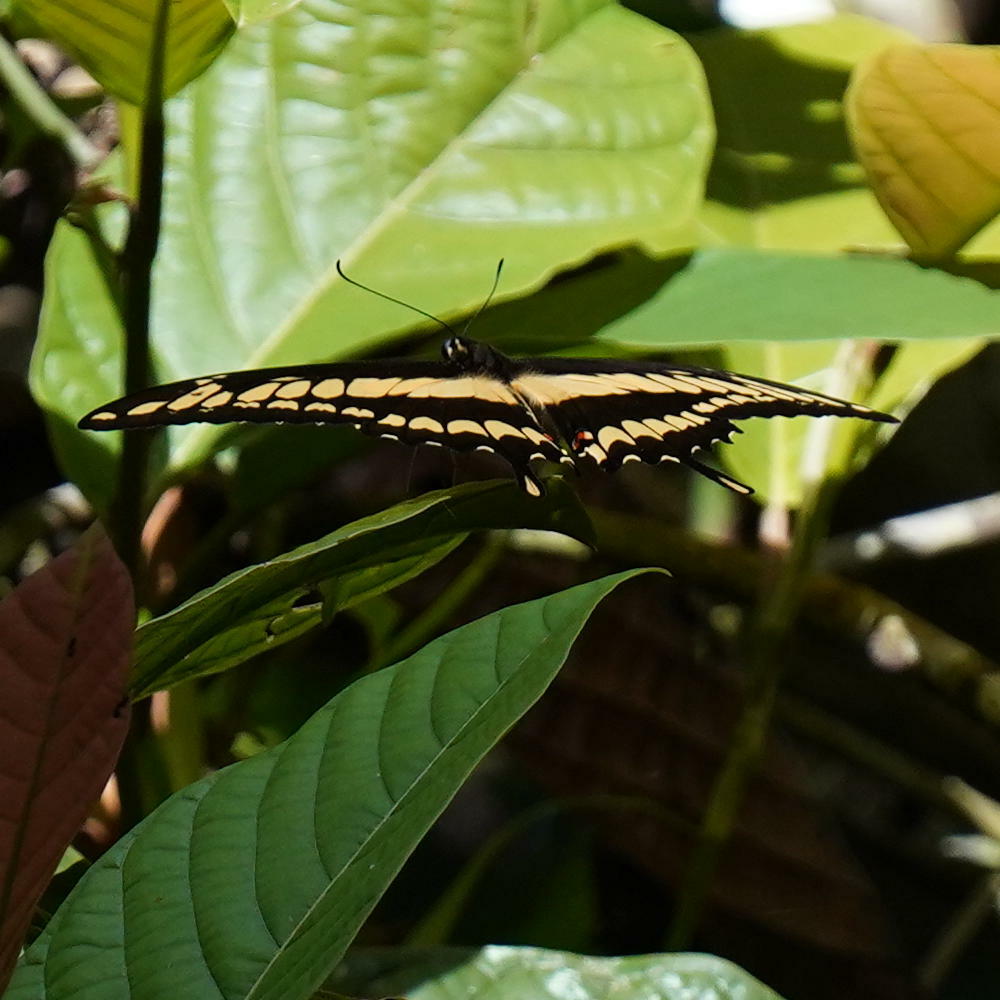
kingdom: Animalia
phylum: Arthropoda
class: Insecta
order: Lepidoptera
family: Papilionidae
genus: Papilio
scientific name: Papilio thoas
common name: King swallowtail
